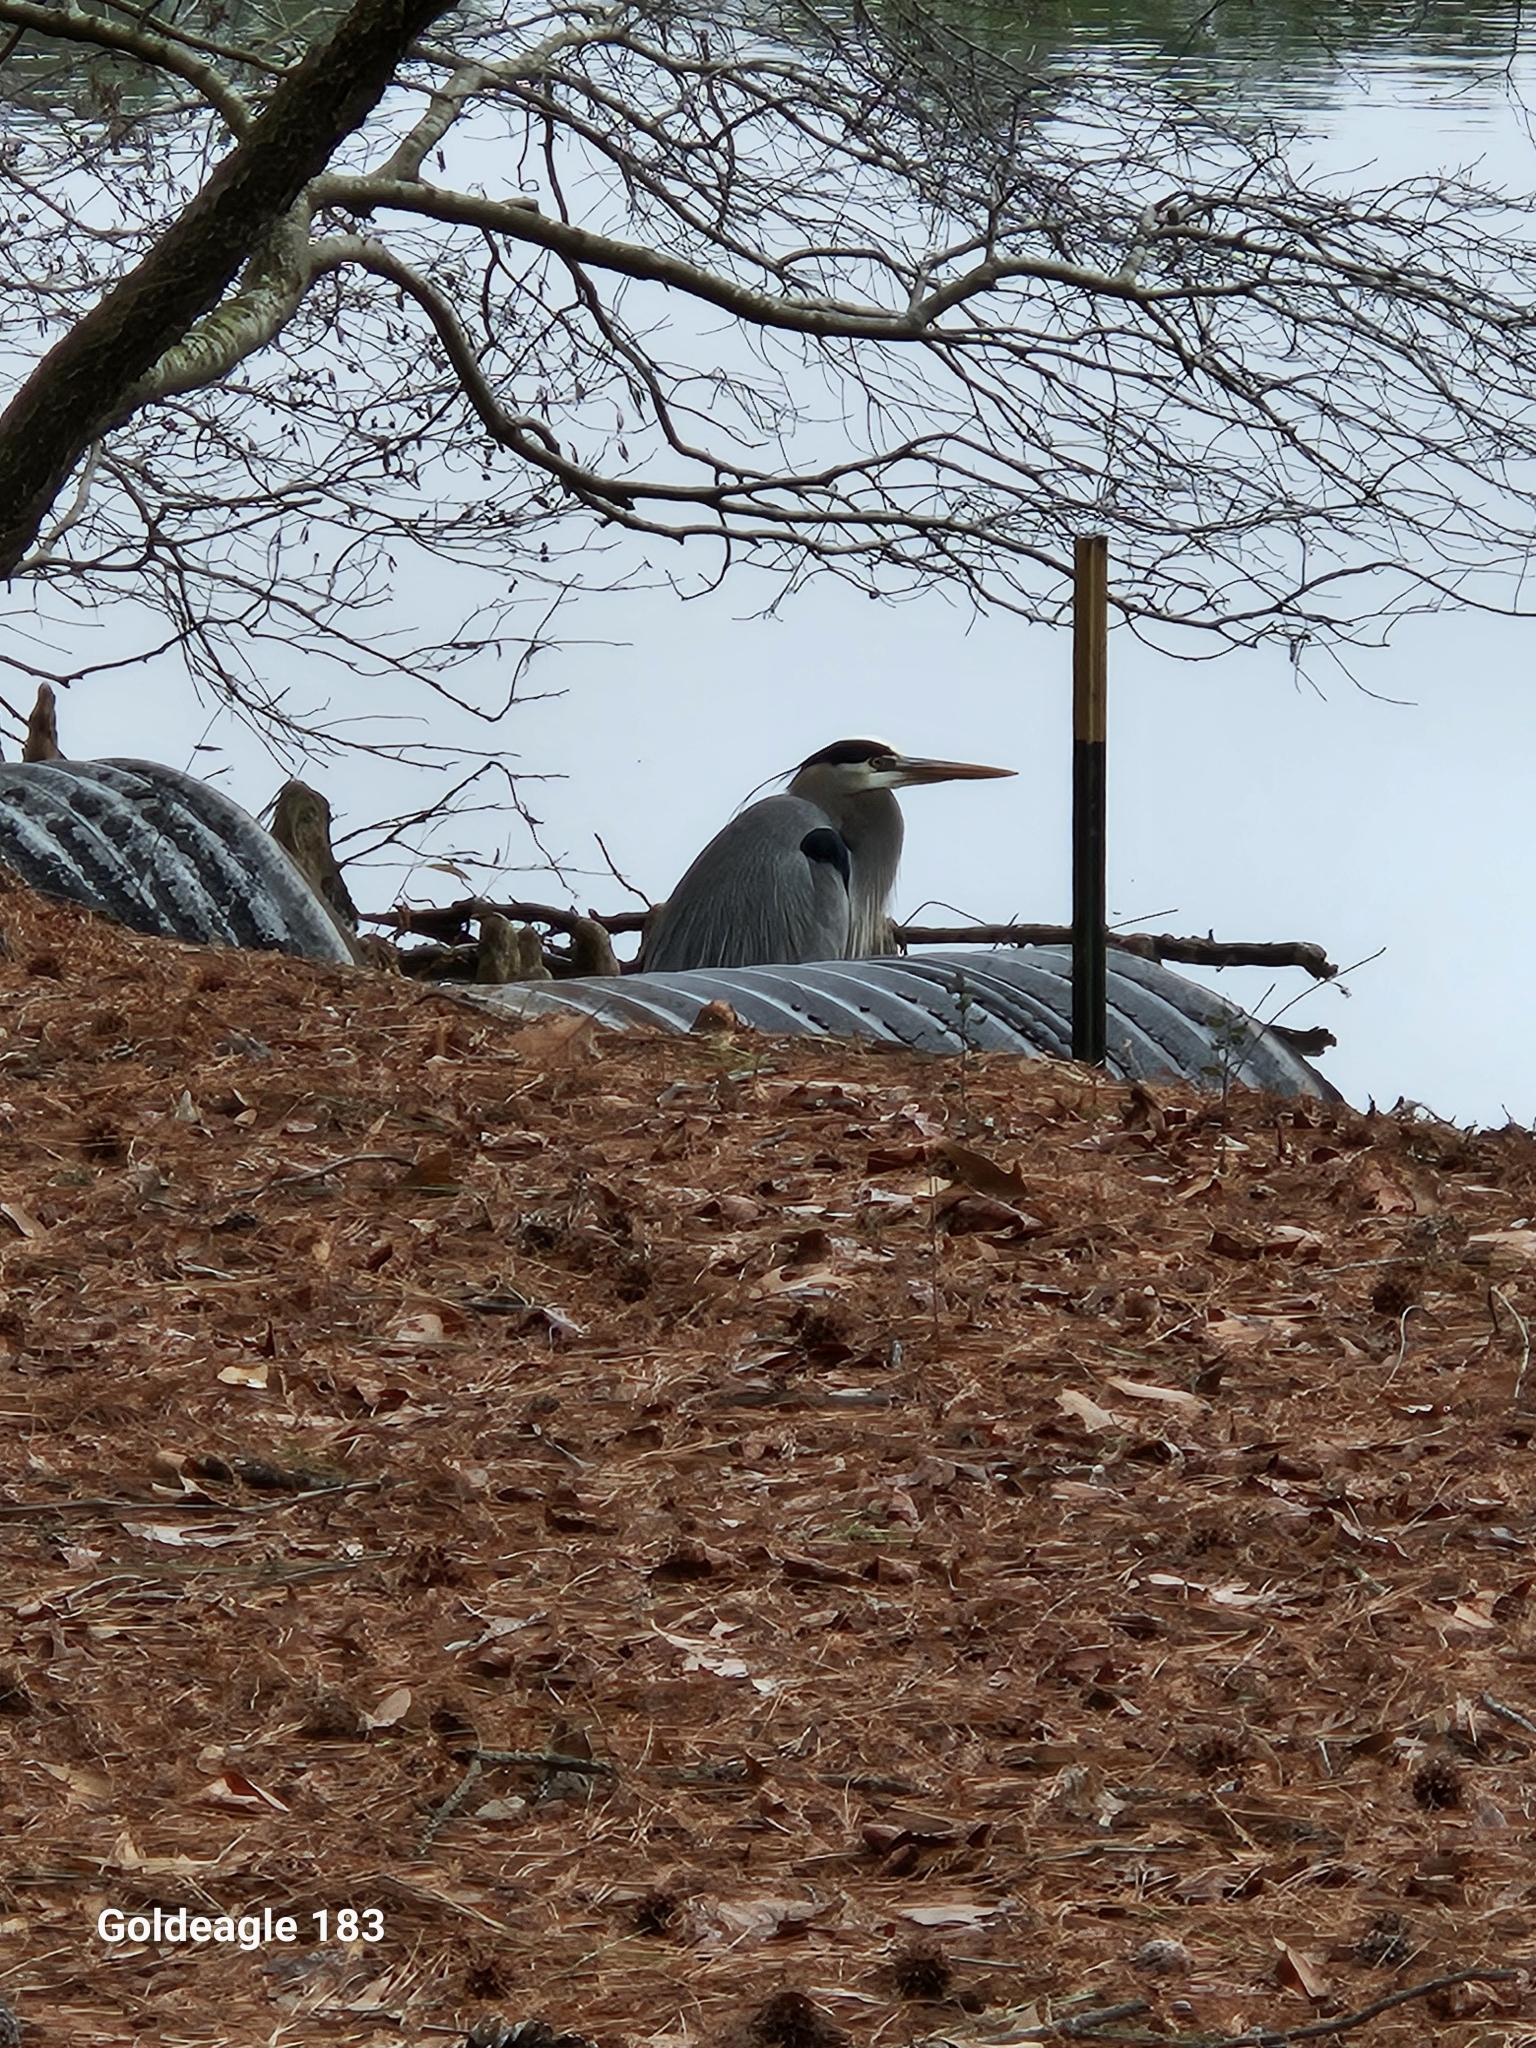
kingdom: Animalia
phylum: Chordata
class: Aves
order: Pelecaniformes
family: Ardeidae
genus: Ardea
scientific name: Ardea herodias
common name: Great blue heron
